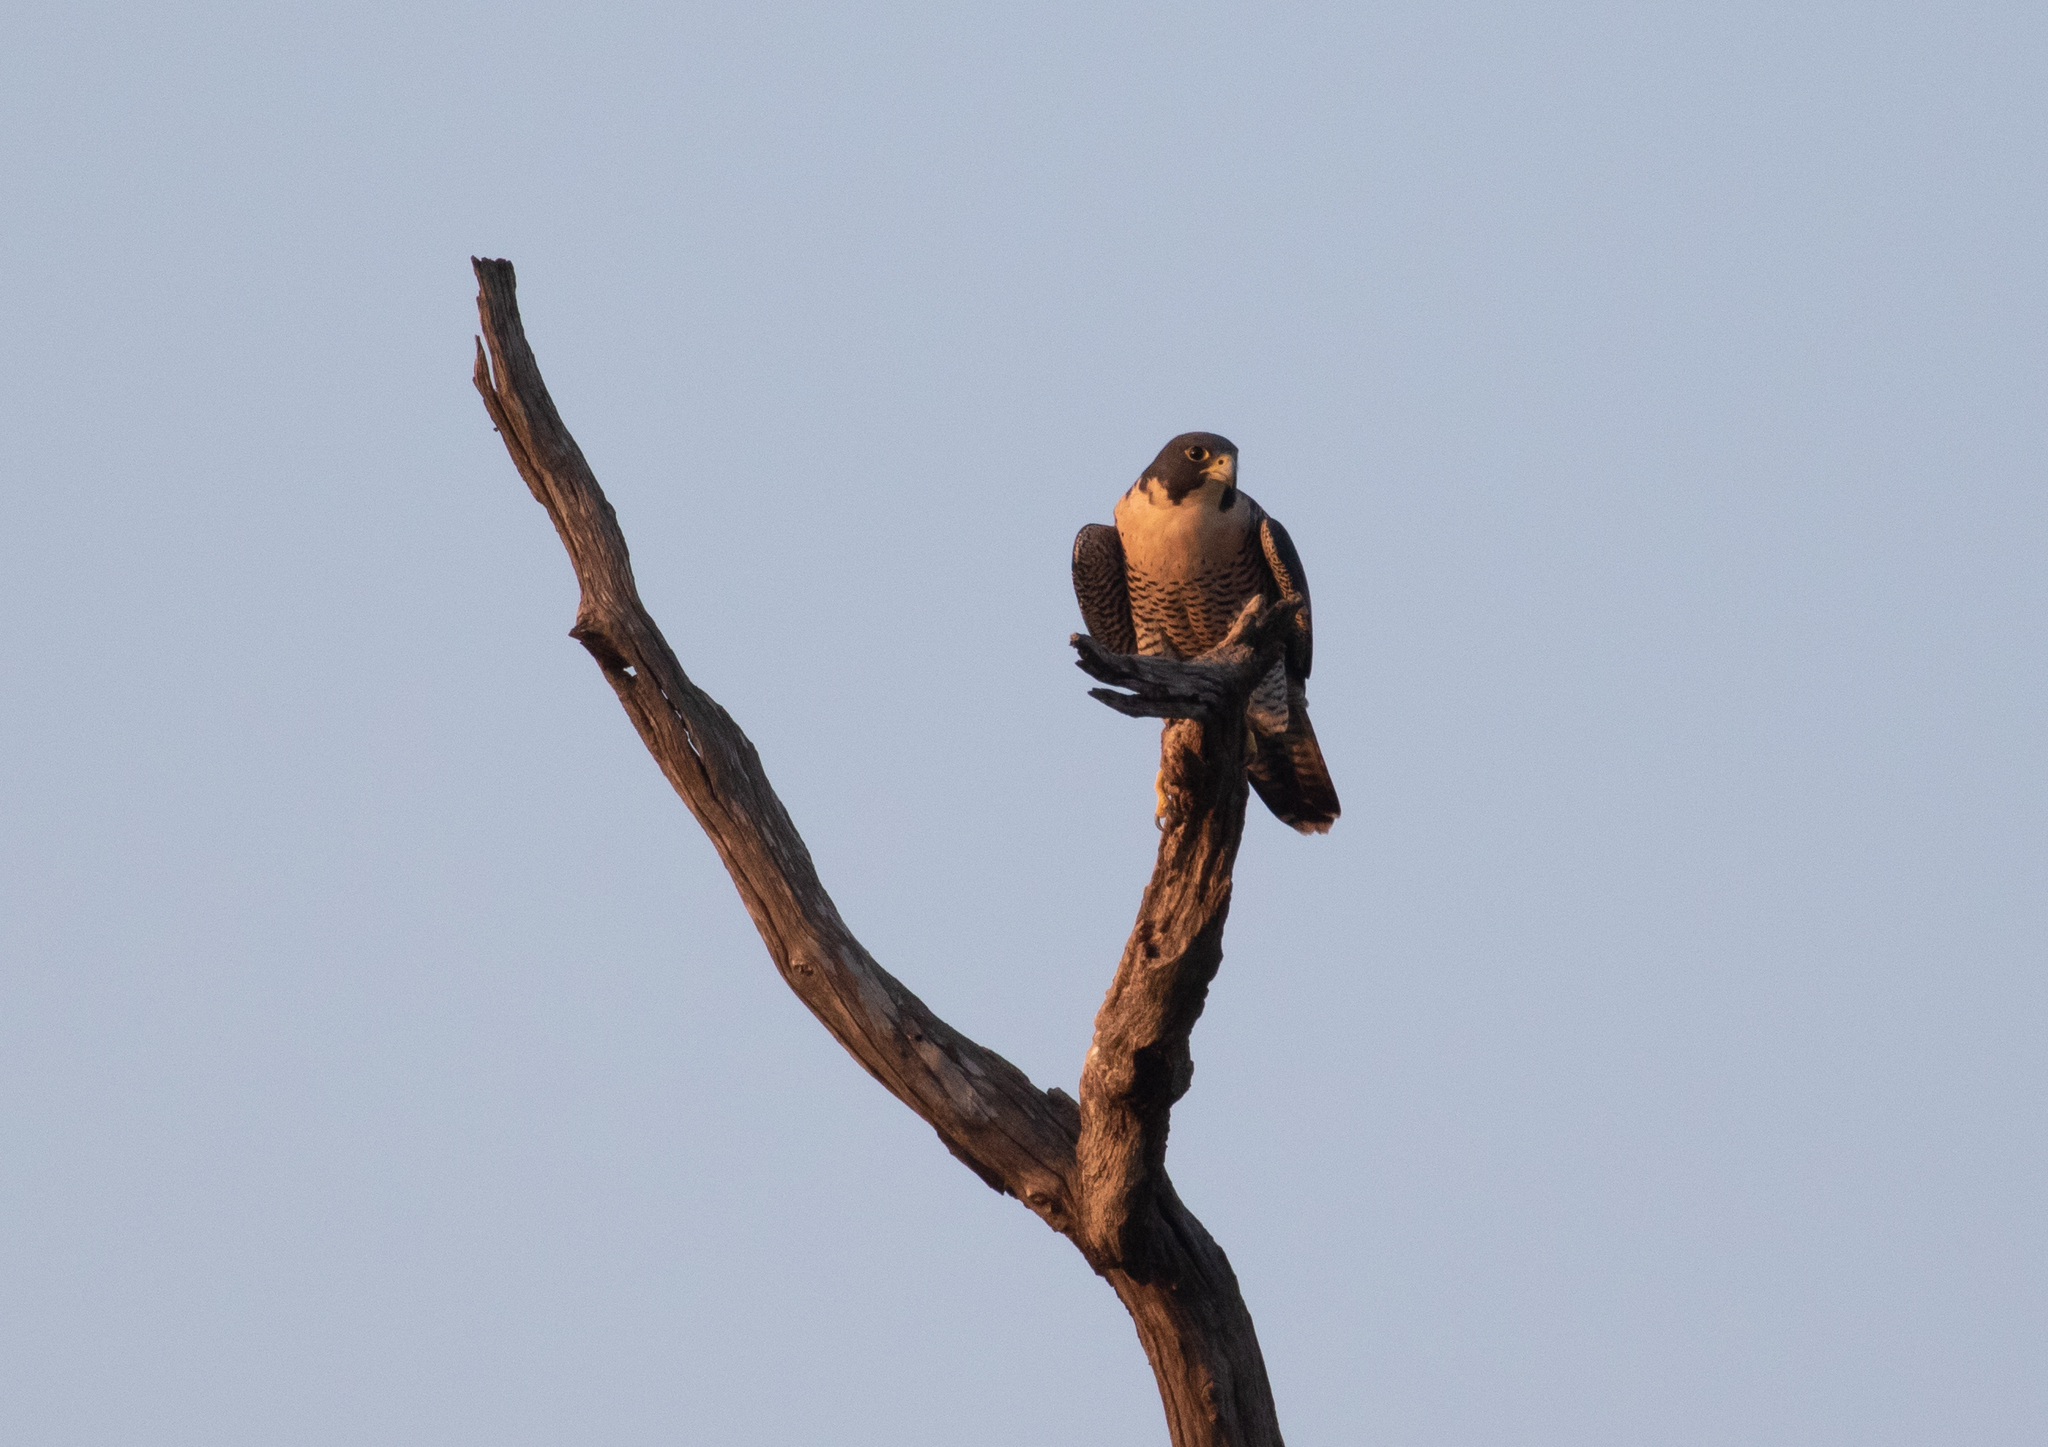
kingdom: Animalia
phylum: Chordata
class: Aves
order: Falconiformes
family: Falconidae
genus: Falco
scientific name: Falco peregrinus
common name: Peregrine falcon
